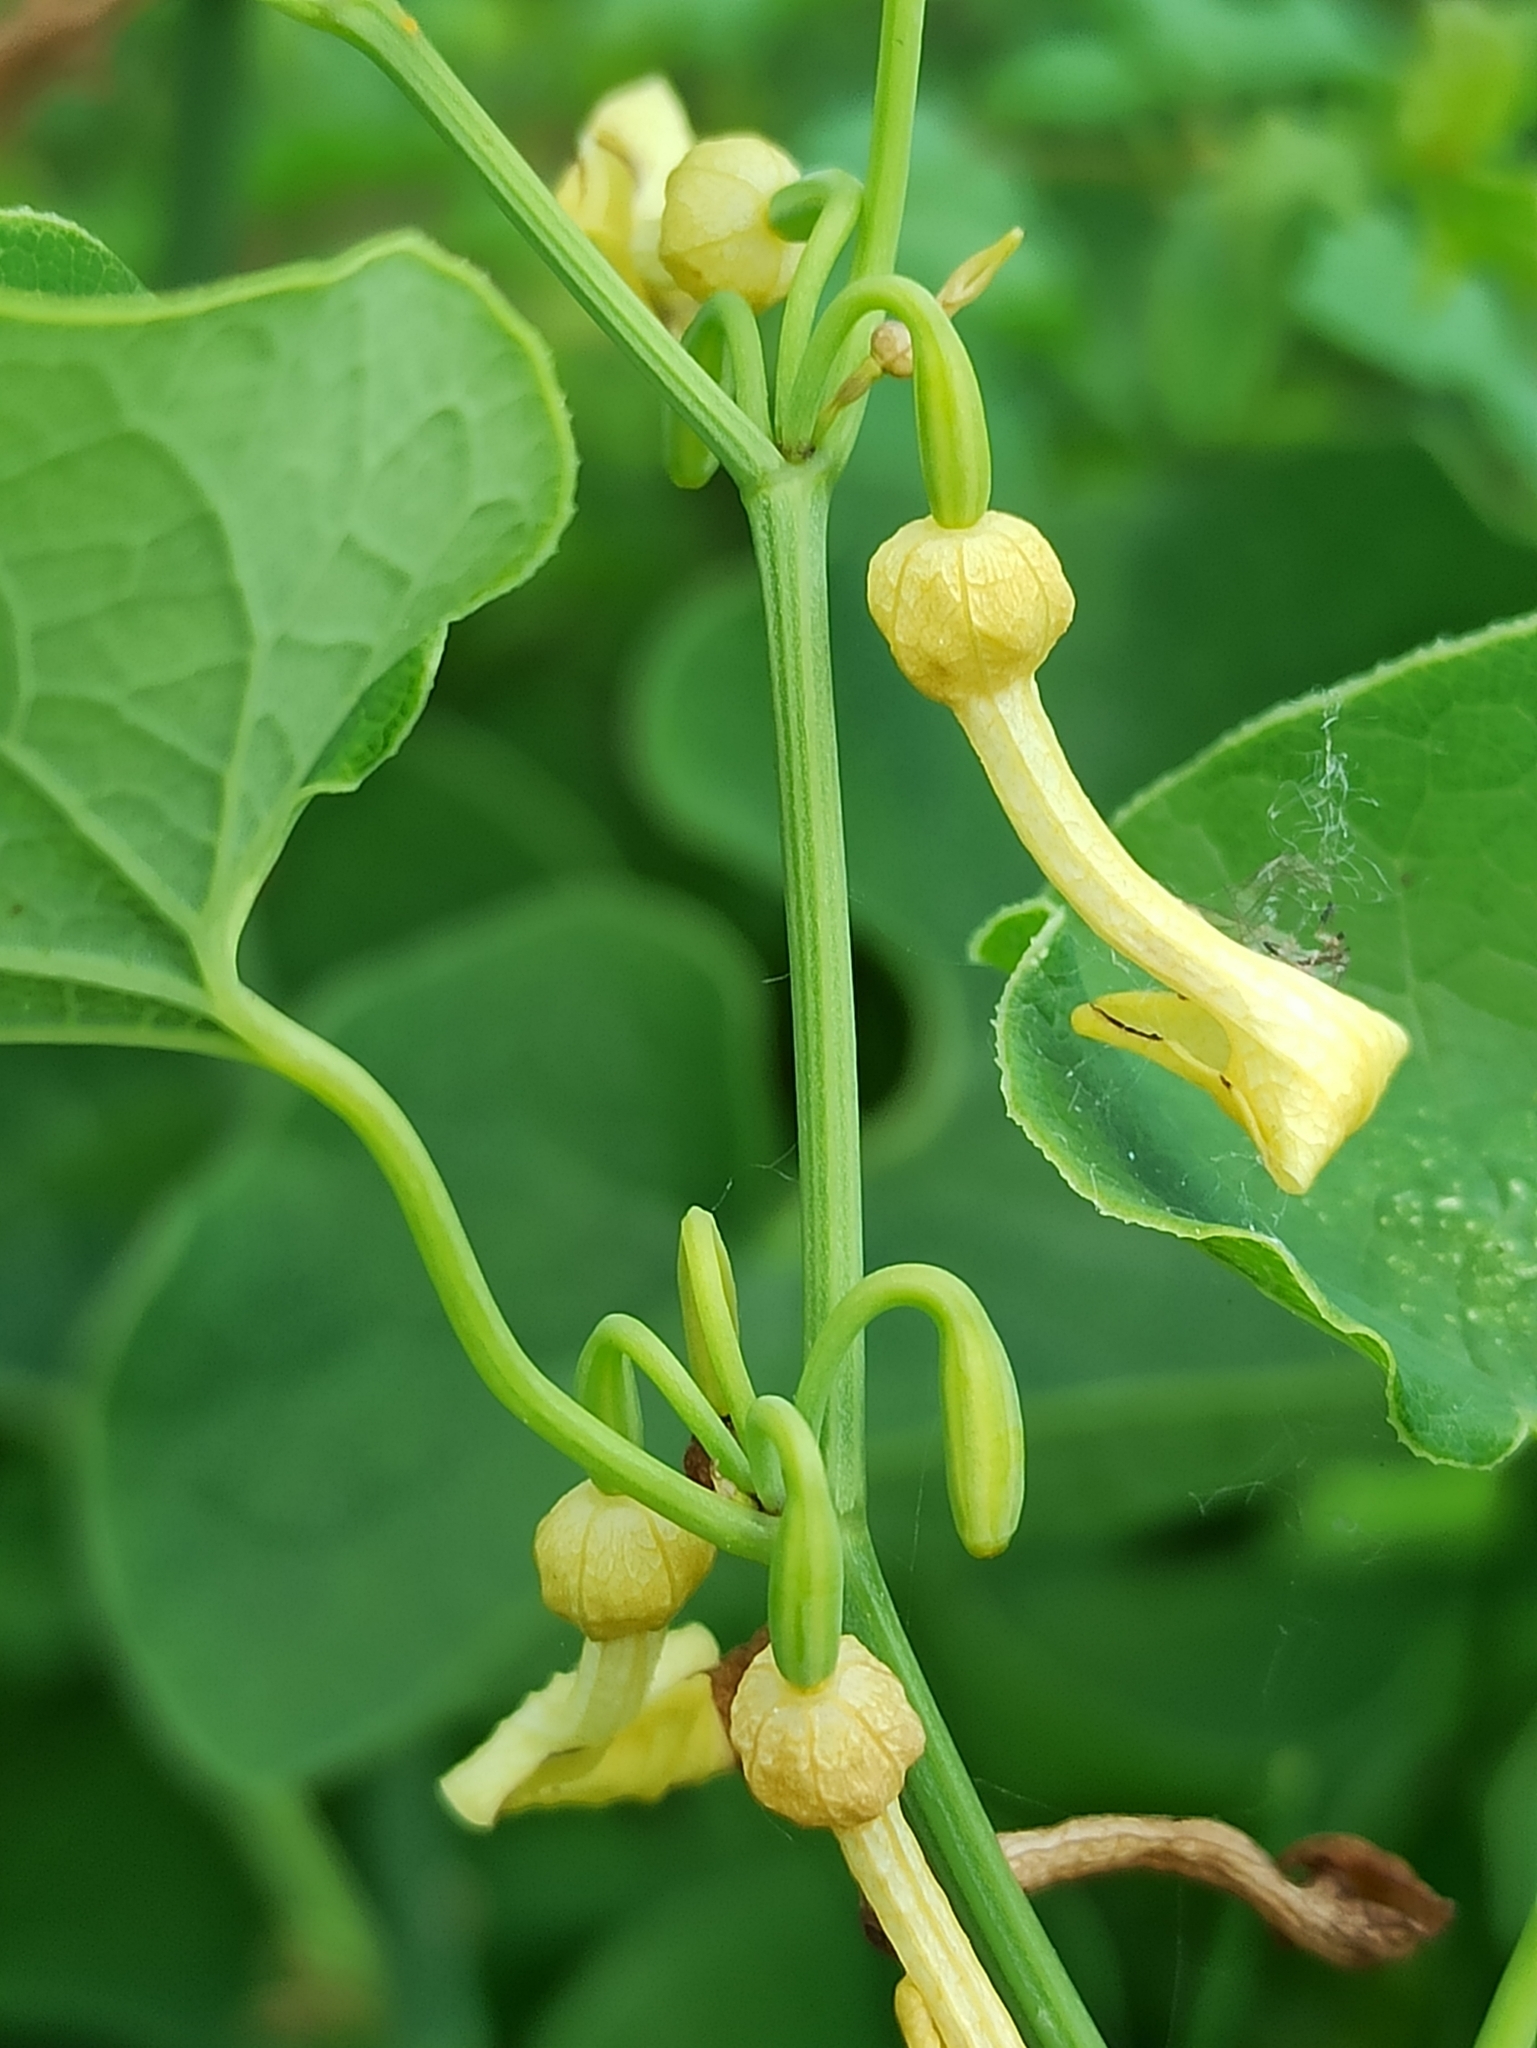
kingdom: Plantae
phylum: Tracheophyta
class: Magnoliopsida
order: Piperales
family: Aristolochiaceae
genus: Aristolochia
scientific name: Aristolochia clematitis
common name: Birthwort
